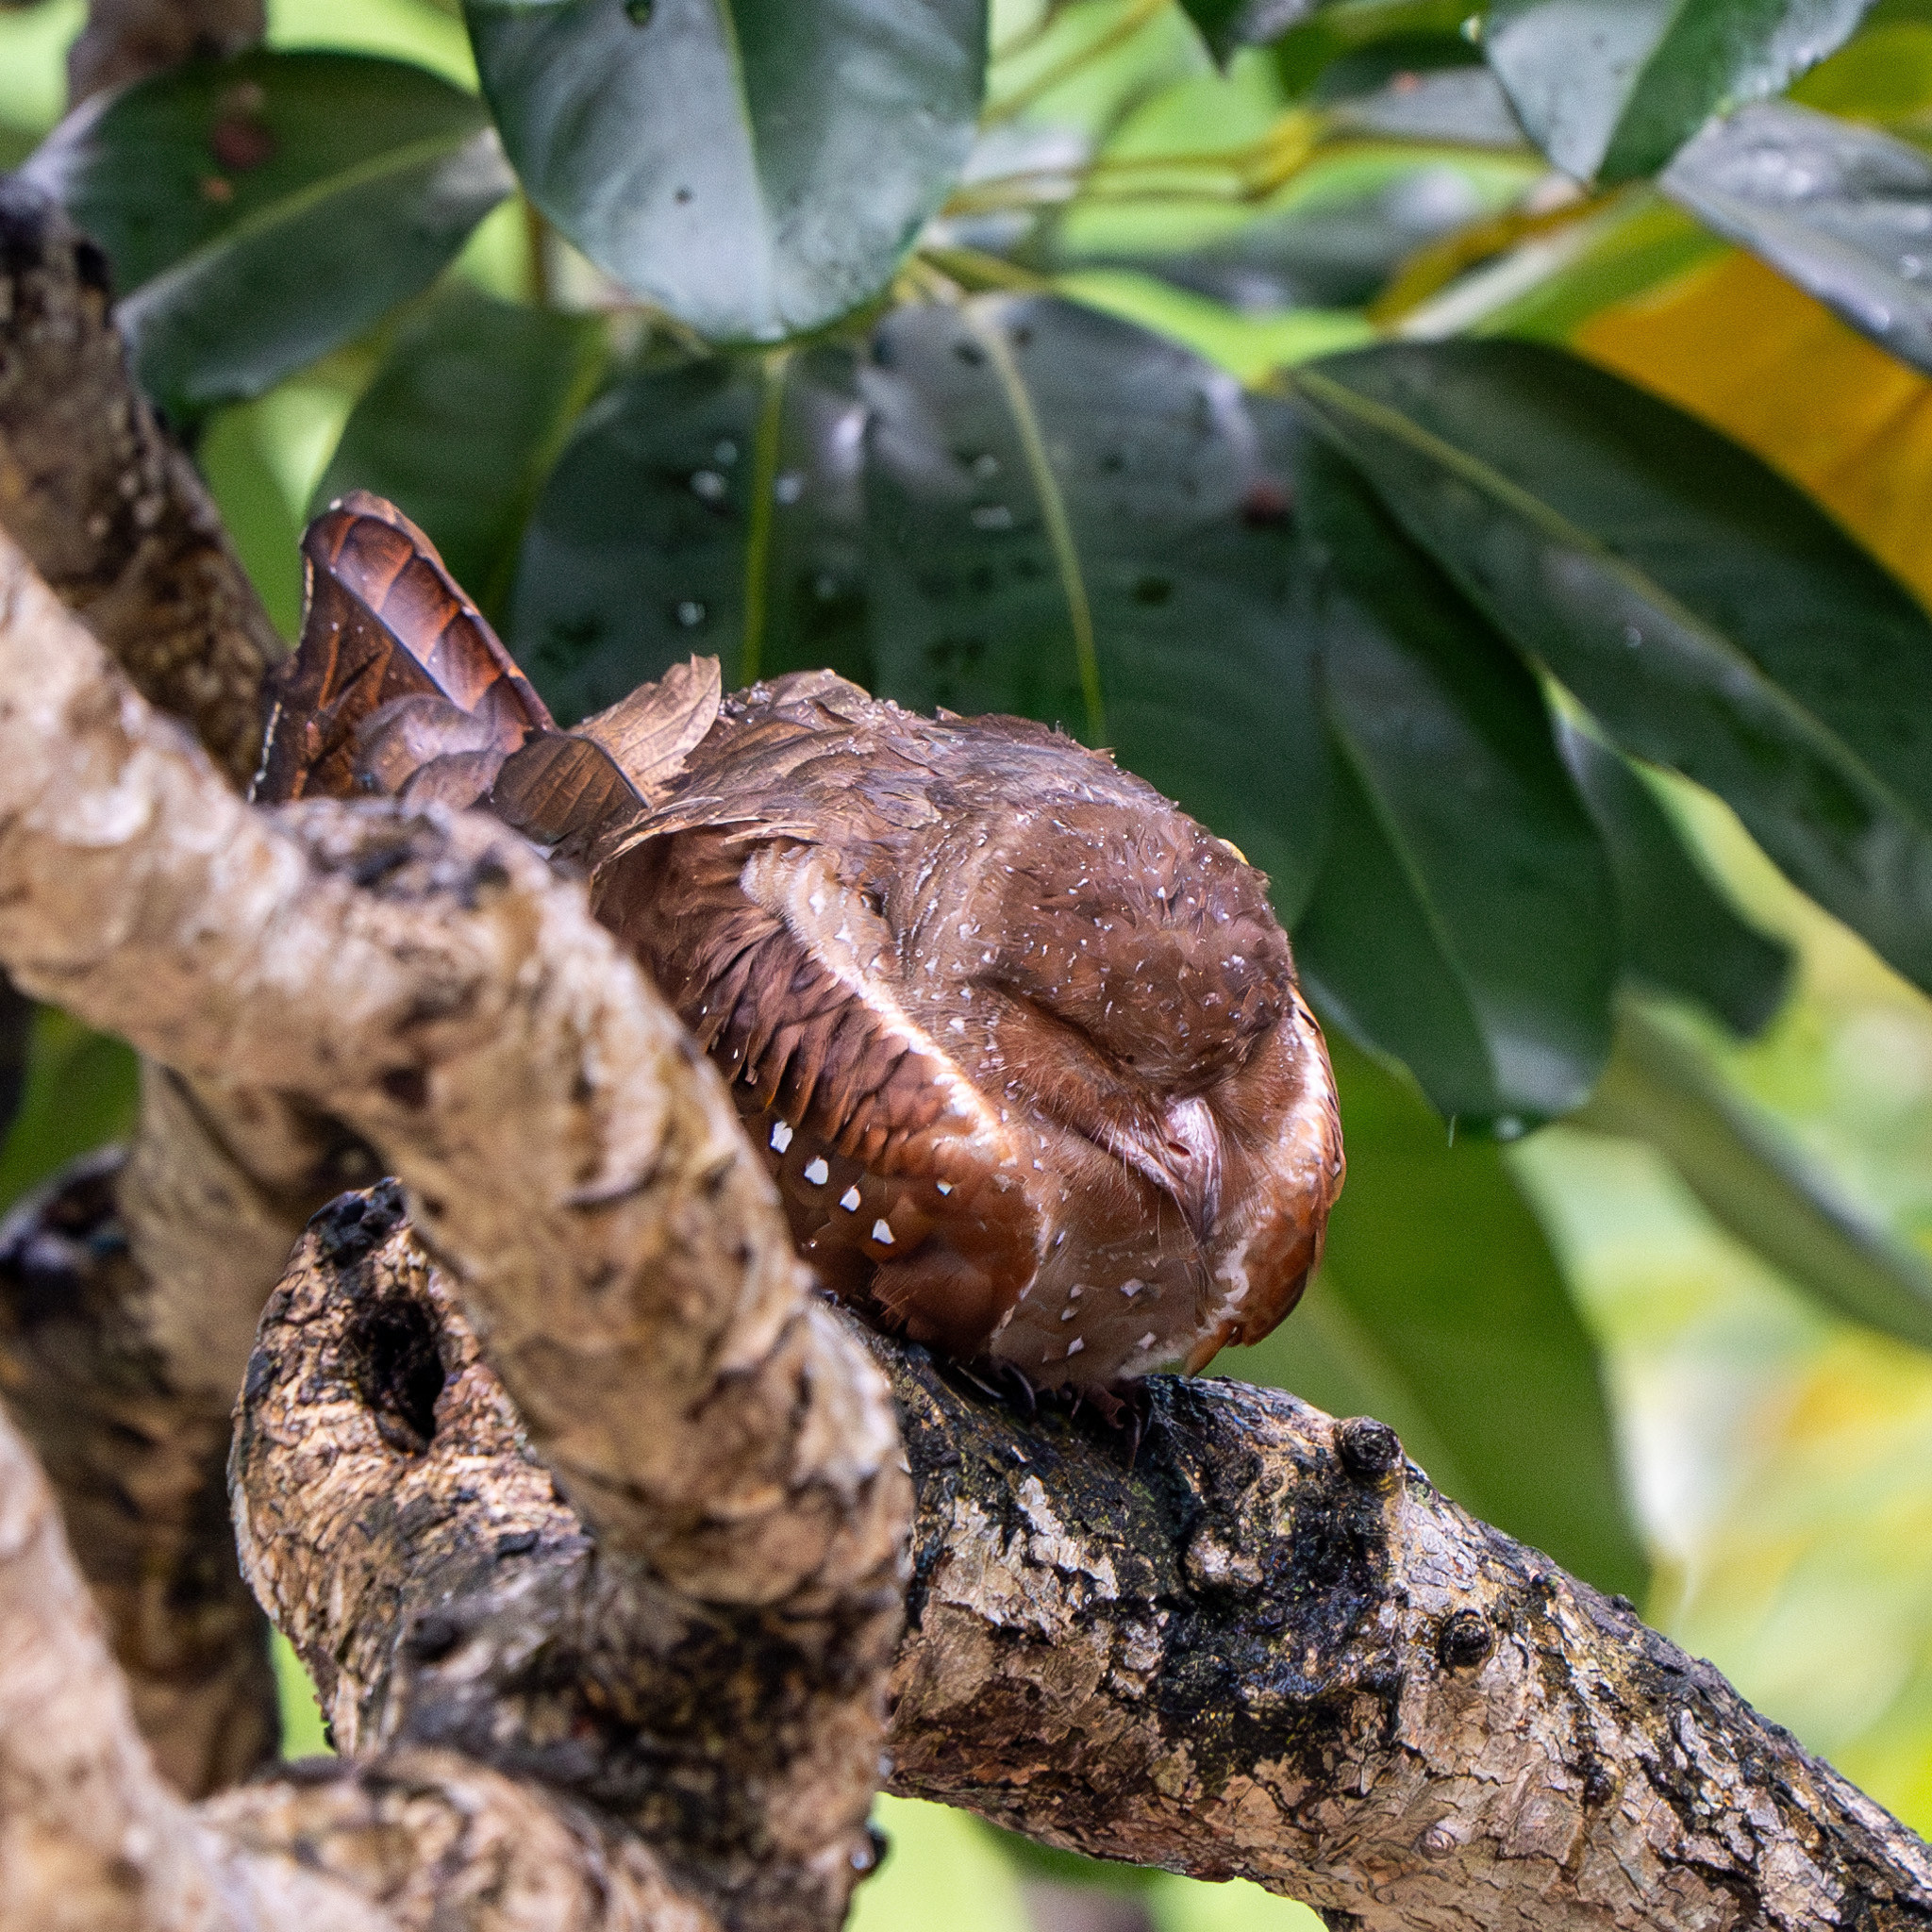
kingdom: Animalia
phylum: Chordata
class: Aves
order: Steatornithiformes
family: Steatornithidae
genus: Steatornis
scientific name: Steatornis caripensis
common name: Oilbird
